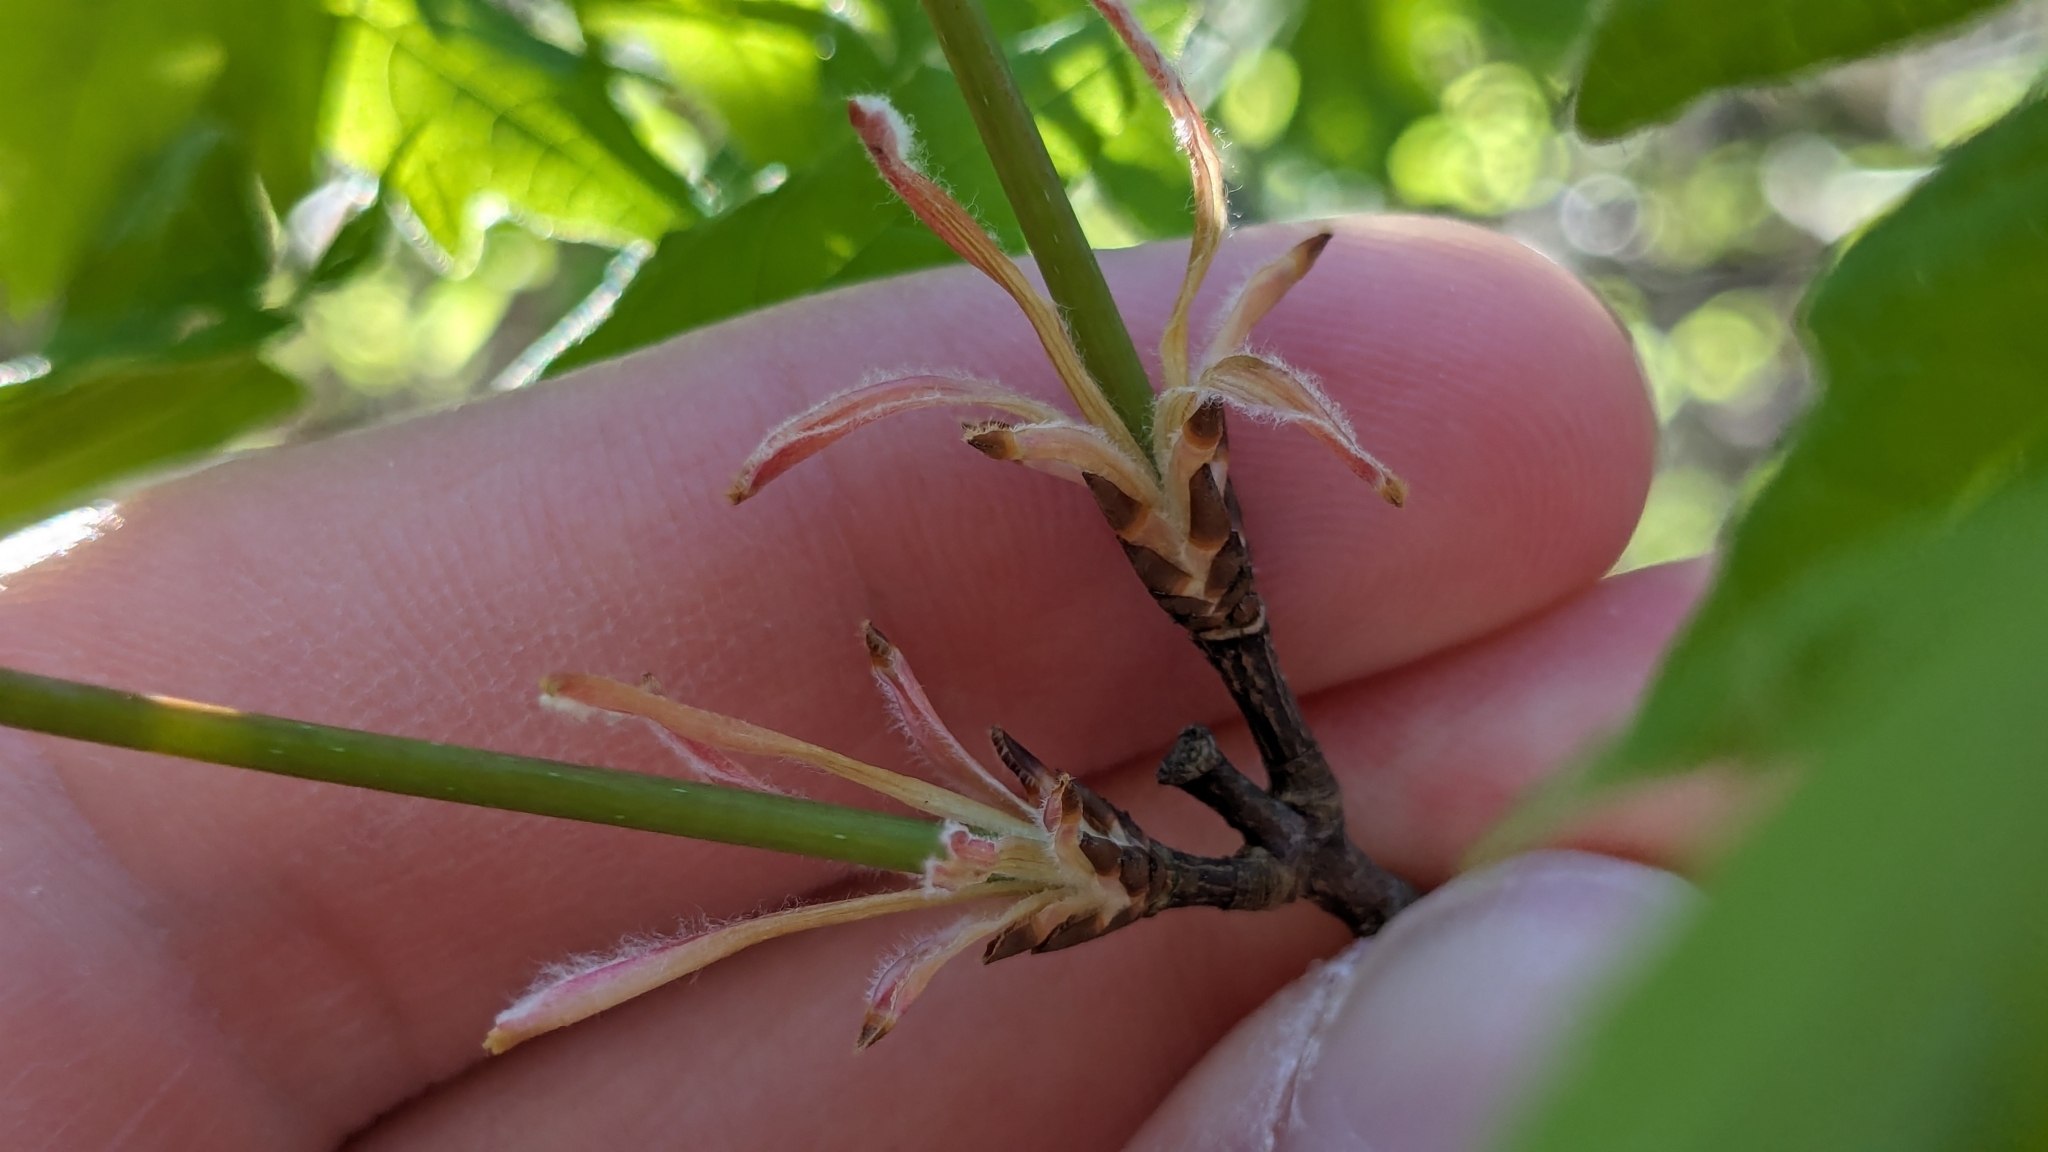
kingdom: Plantae
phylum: Tracheophyta
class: Magnoliopsida
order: Sapindales
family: Sapindaceae
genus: Acer
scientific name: Acer grandidentatum
